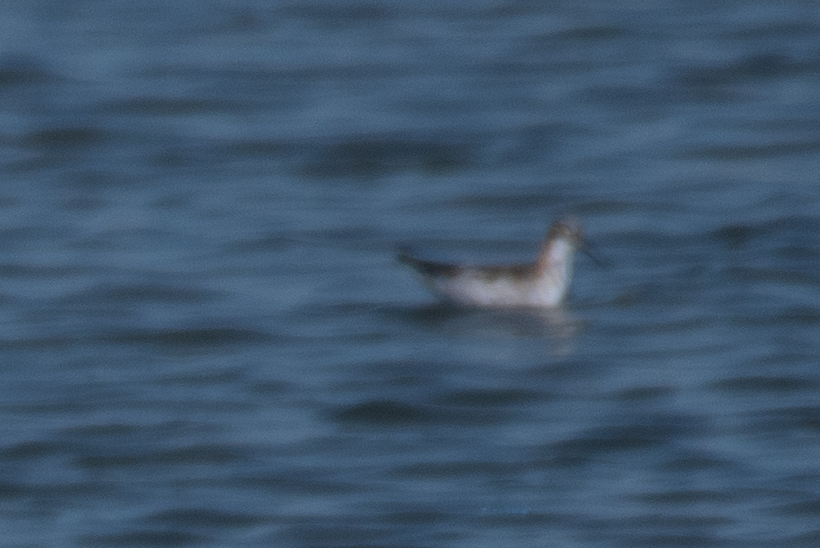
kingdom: Animalia
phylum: Chordata
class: Aves
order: Charadriiformes
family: Scolopacidae
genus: Phalaropus
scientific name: Phalaropus lobatus
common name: Red-necked phalarope
